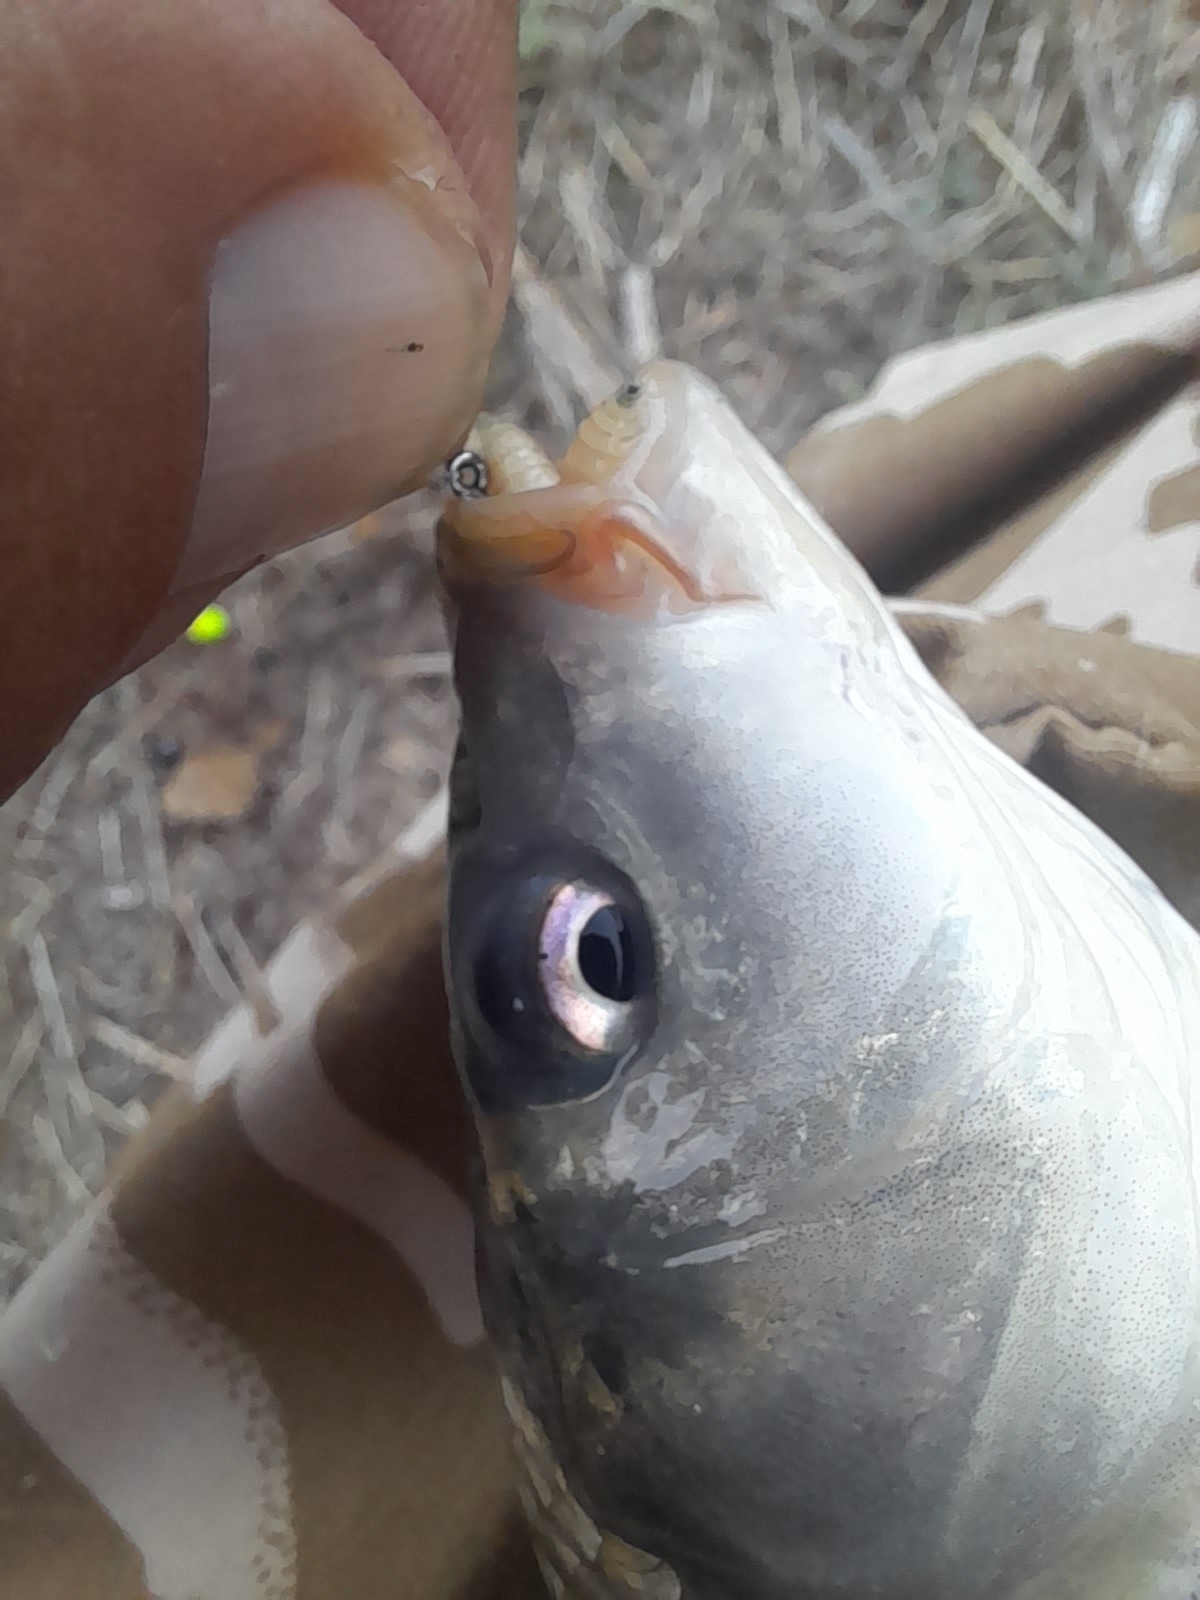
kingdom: Animalia
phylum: Chordata
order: Cypriniformes
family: Cyprinidae
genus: Cyprinus
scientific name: Cyprinus carpio
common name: Common carp
